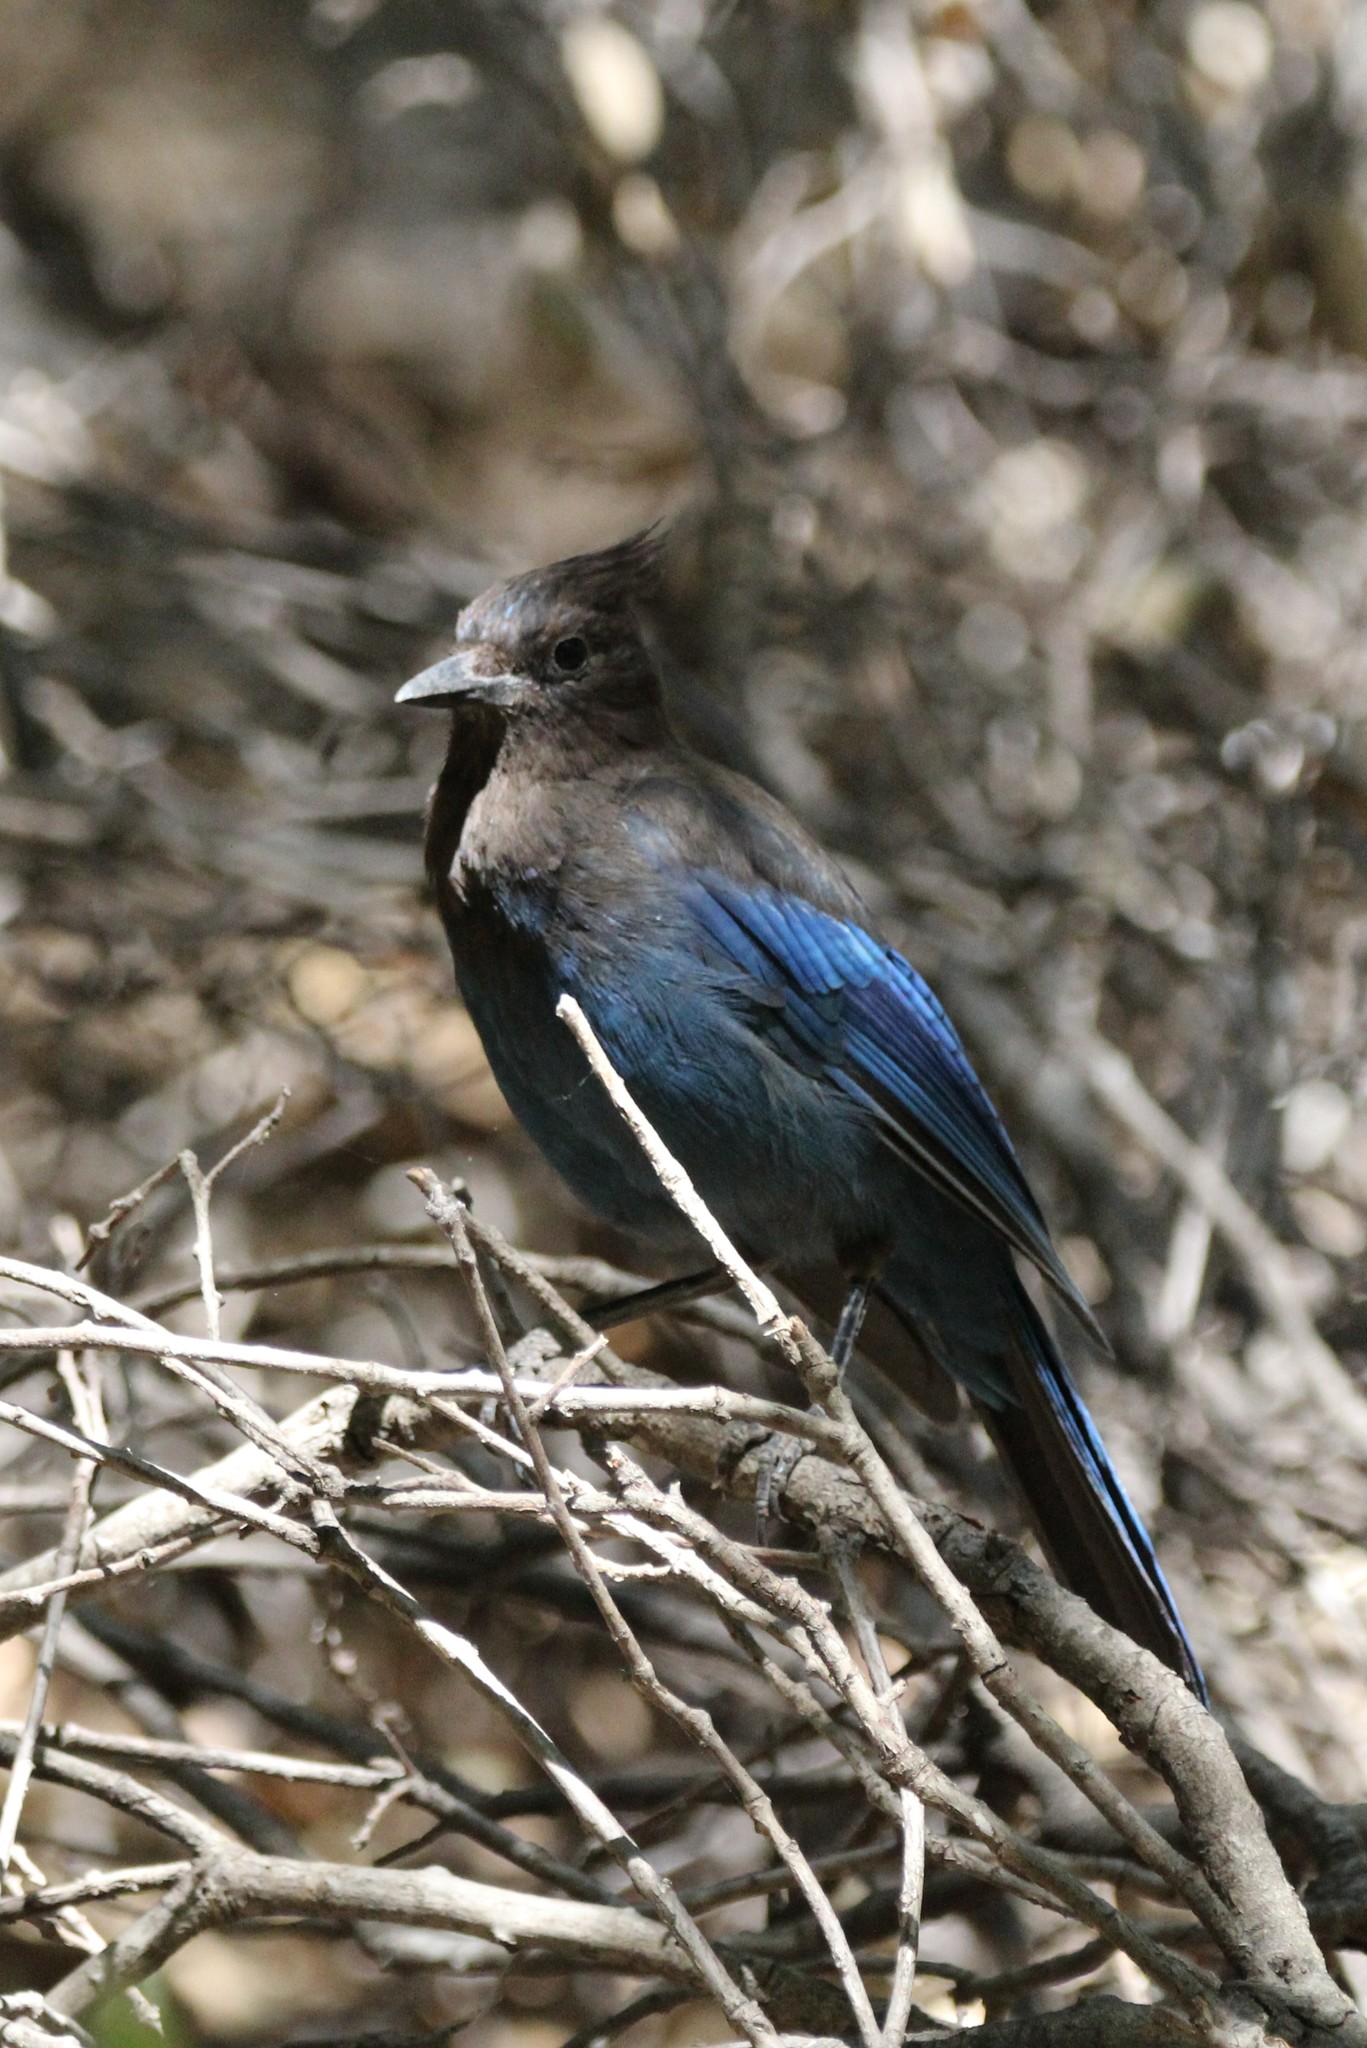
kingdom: Animalia
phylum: Chordata
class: Aves
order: Passeriformes
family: Corvidae
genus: Cyanocitta
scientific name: Cyanocitta stelleri
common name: Steller's jay
